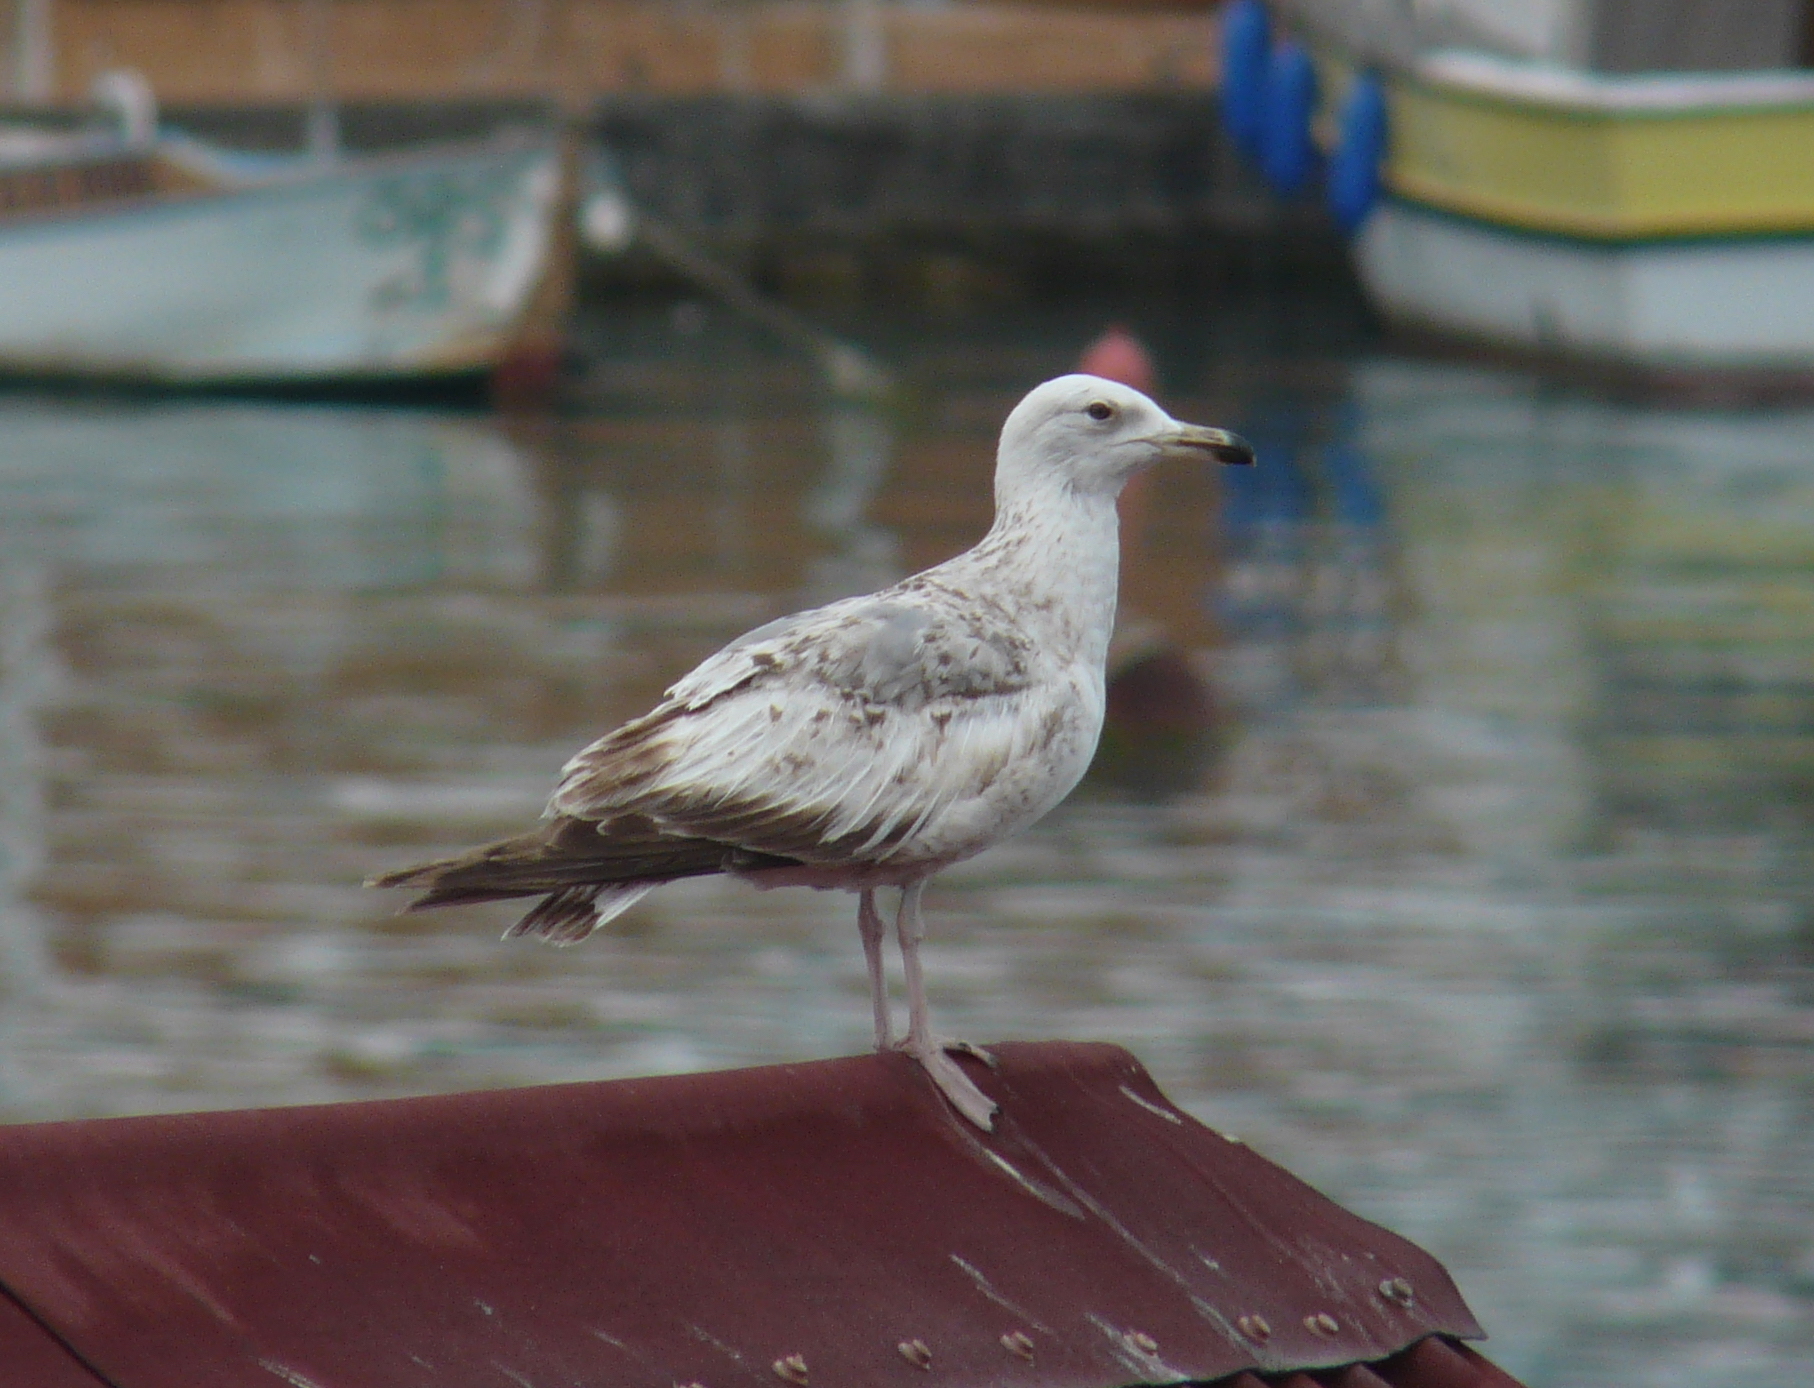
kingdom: Animalia
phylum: Chordata
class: Aves
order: Charadriiformes
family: Laridae
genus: Larus
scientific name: Larus cachinnans
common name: Caspian gull
